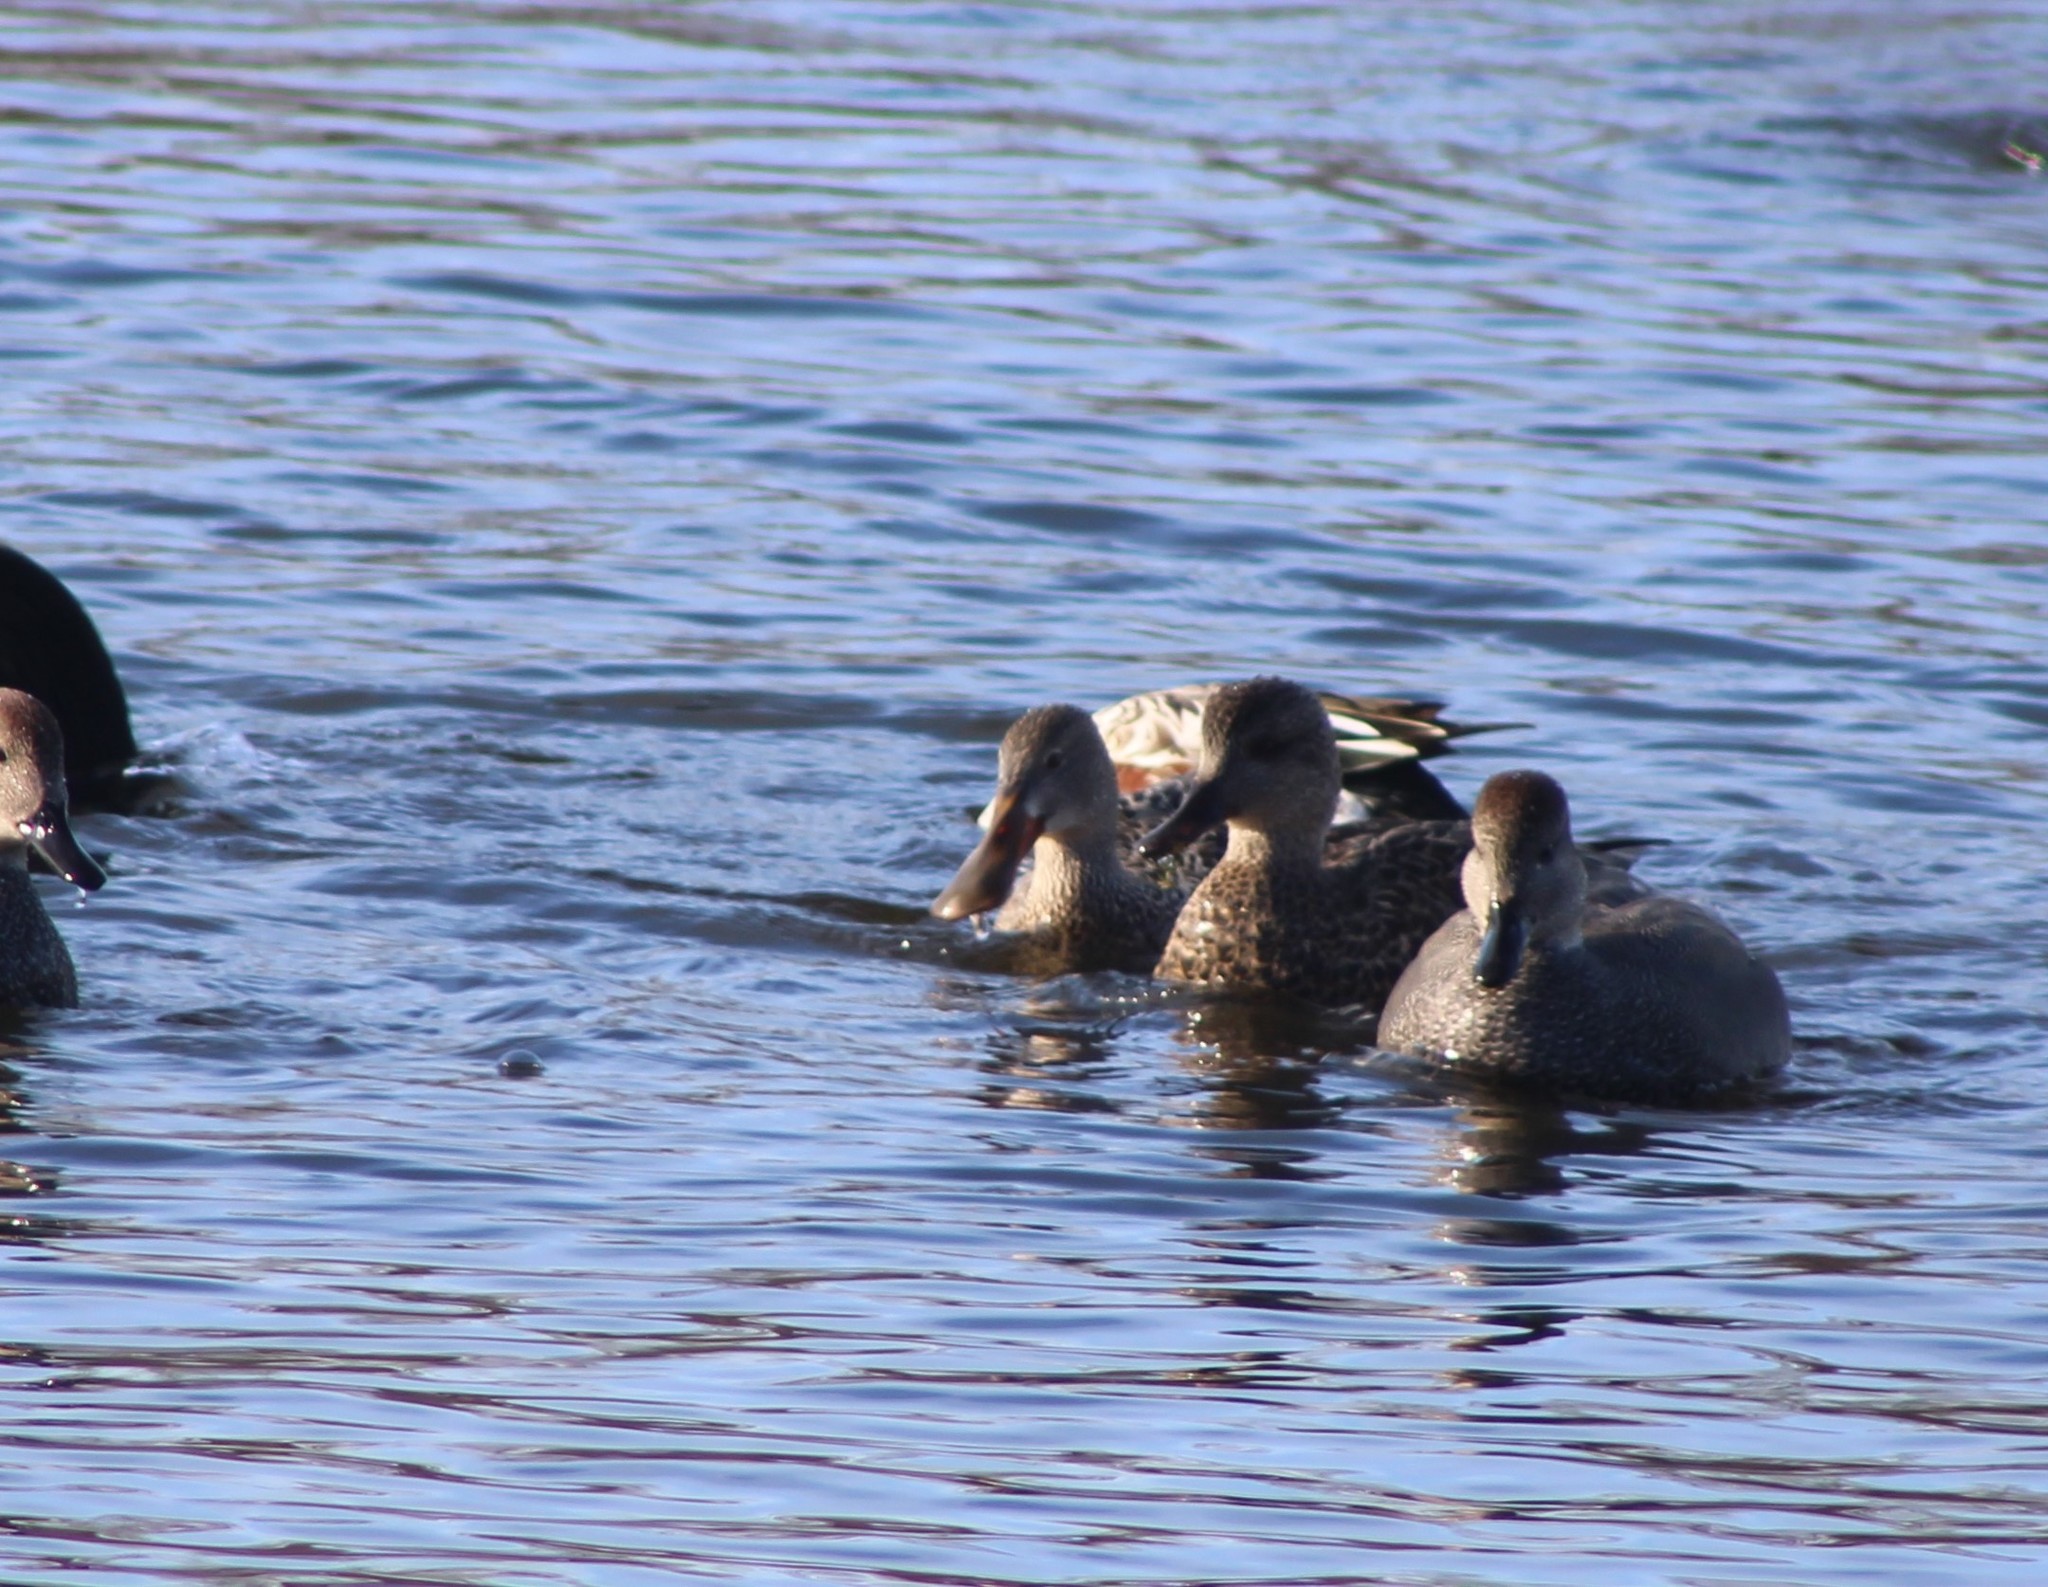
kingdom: Animalia
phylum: Chordata
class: Aves
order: Anseriformes
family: Anatidae
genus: Spatula
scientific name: Spatula clypeata
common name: Northern shoveler
